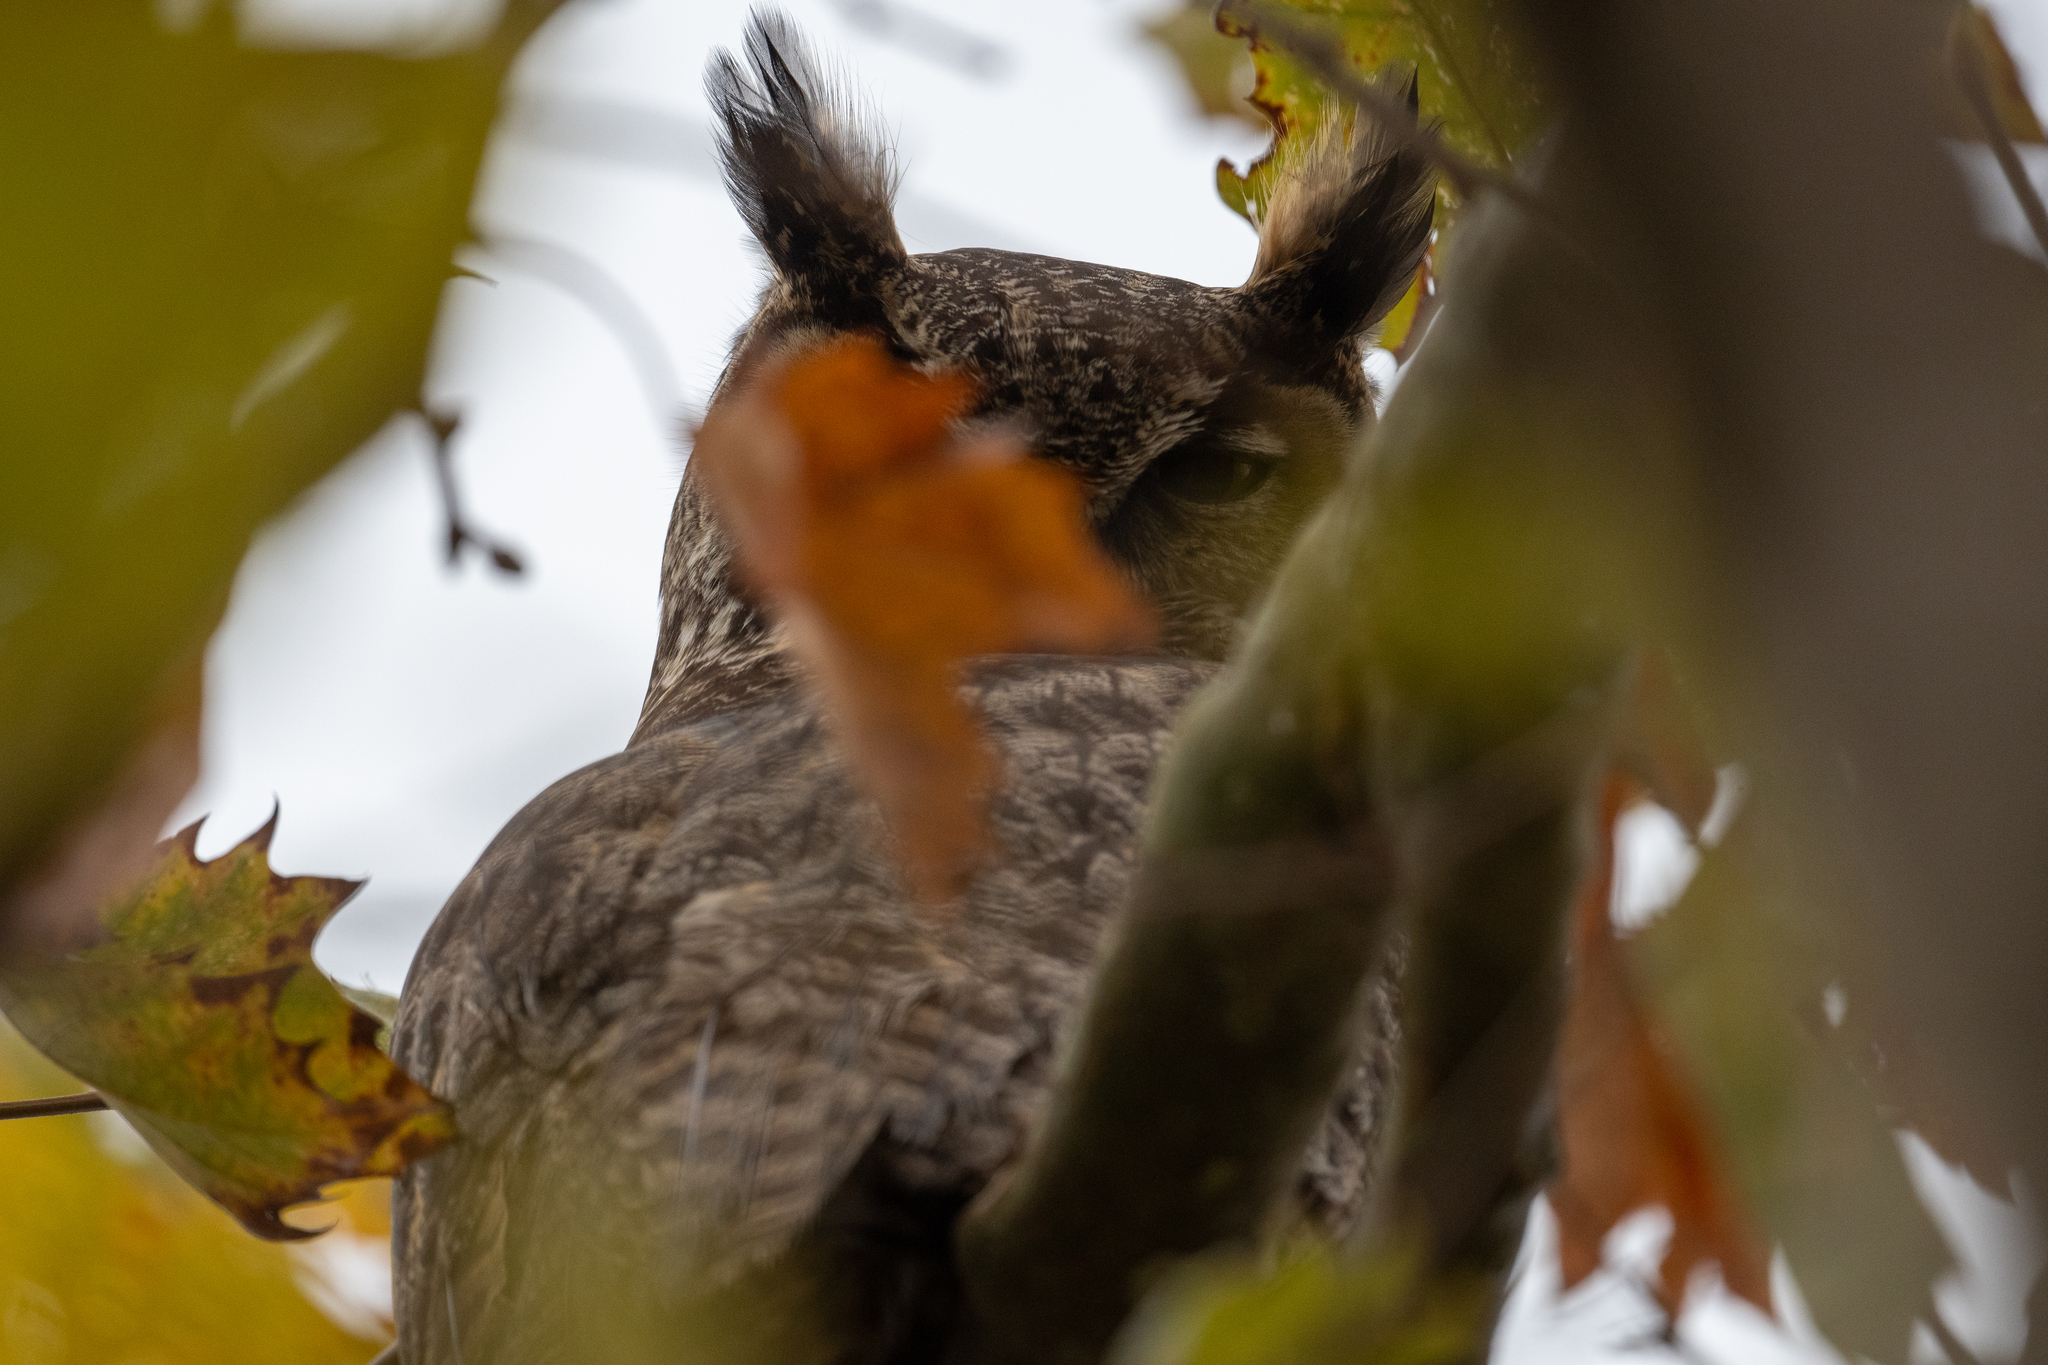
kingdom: Animalia
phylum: Chordata
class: Aves
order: Strigiformes
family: Strigidae
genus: Bubo
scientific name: Bubo virginianus
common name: Great horned owl
